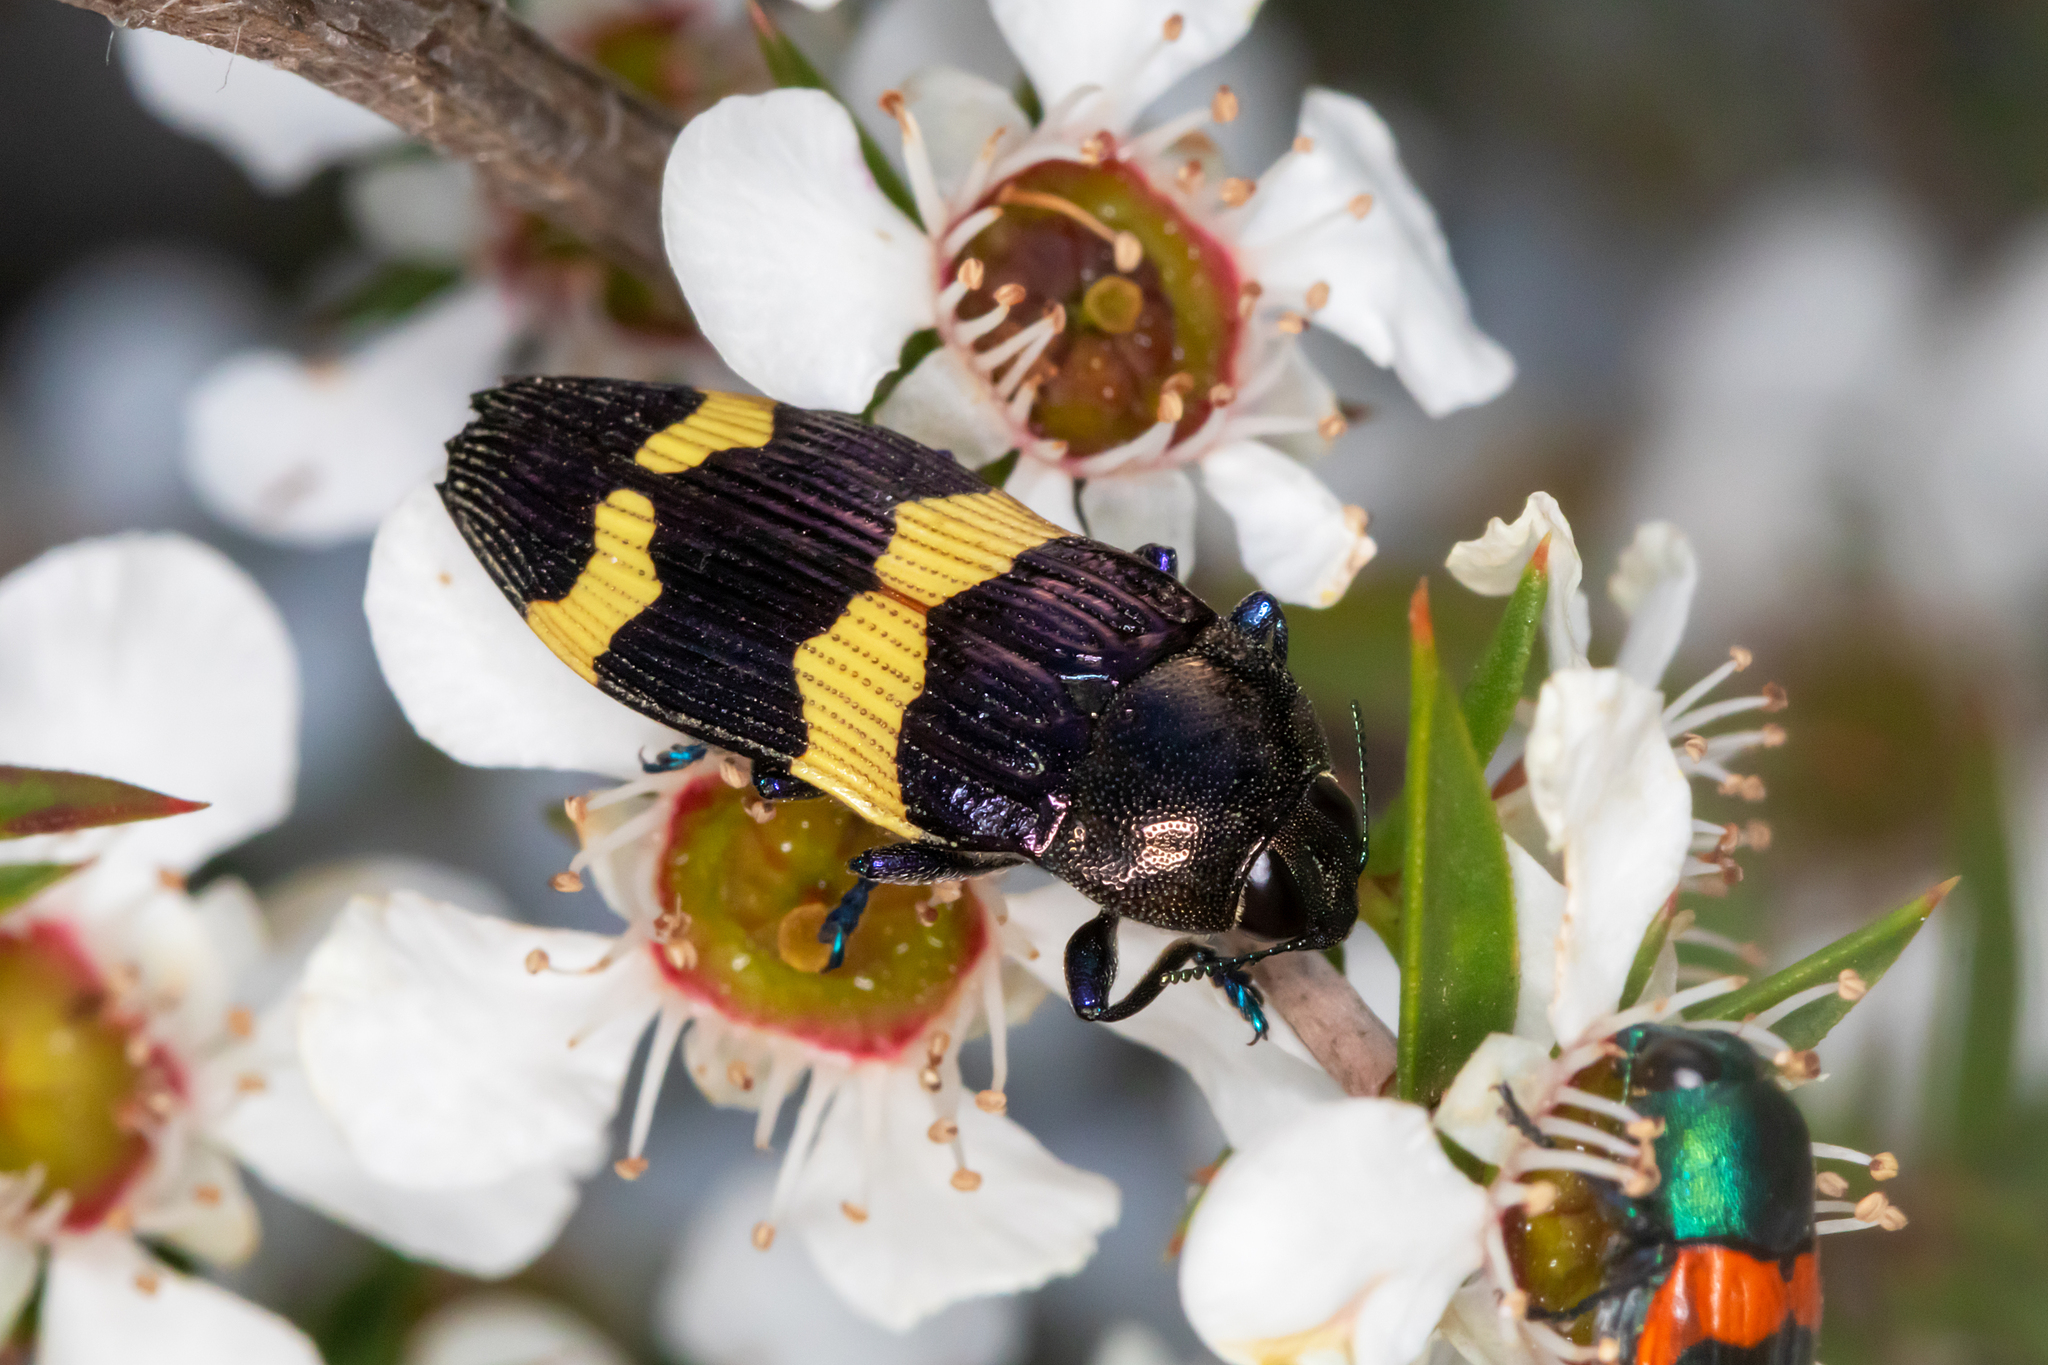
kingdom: Animalia
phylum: Arthropoda
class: Insecta
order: Coleoptera
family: Buprestidae
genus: Castiarina
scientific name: Castiarina bifasciata
